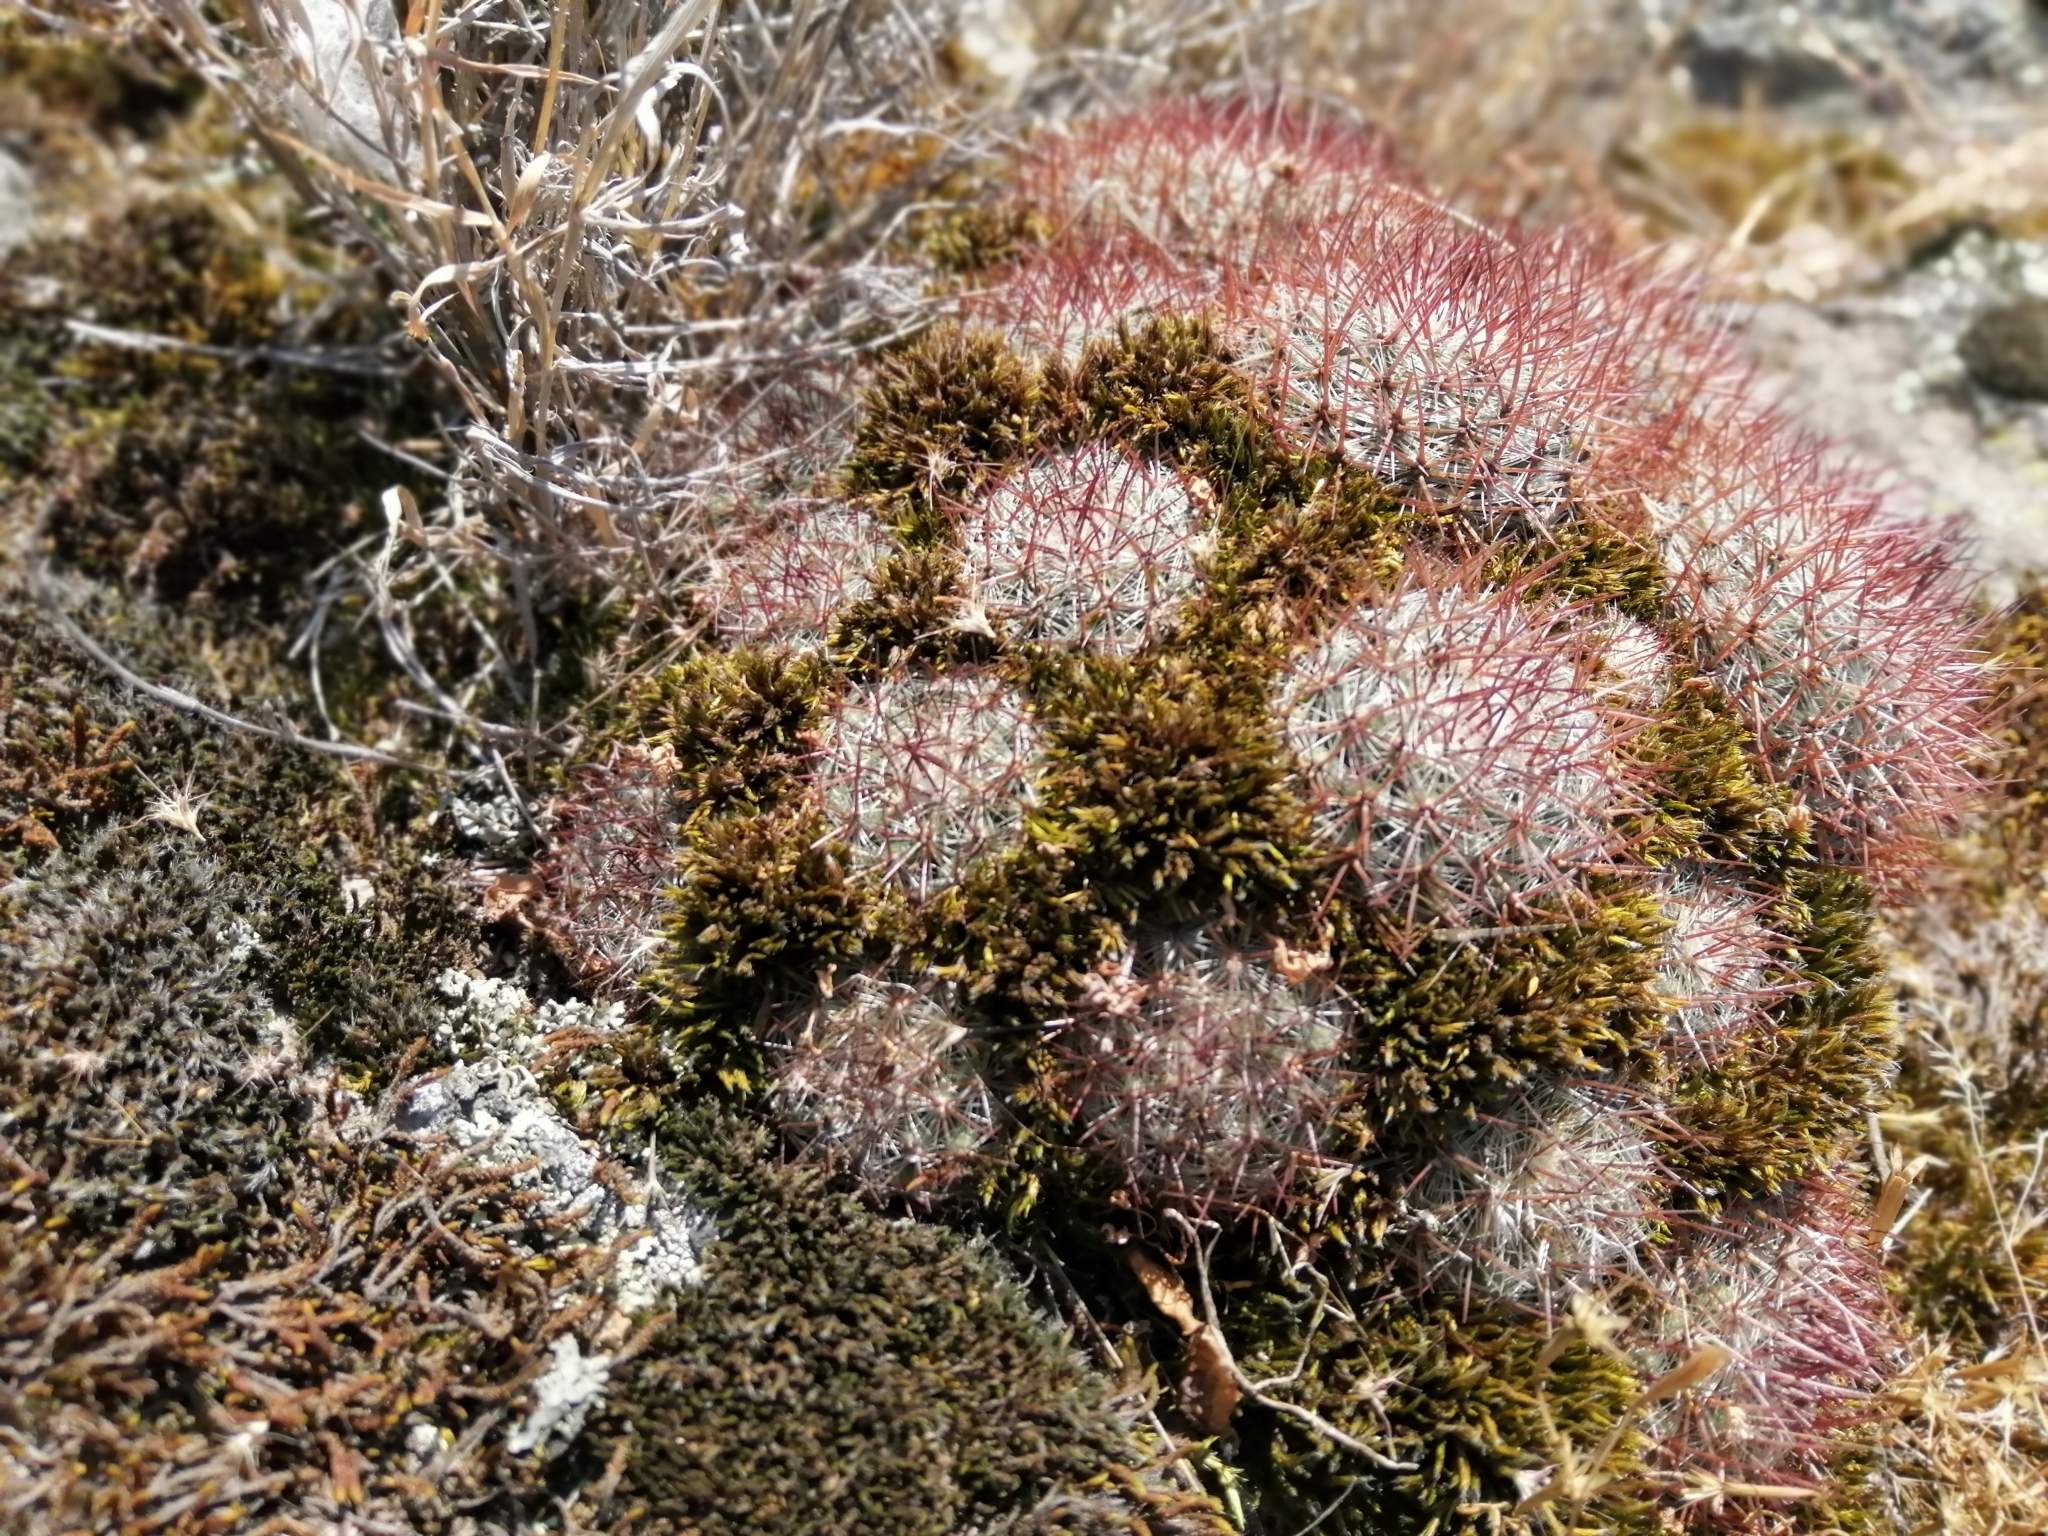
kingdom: Plantae
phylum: Tracheophyta
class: Magnoliopsida
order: Caryophyllales
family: Cactaceae
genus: Mammillaria
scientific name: Mammillaria rhodantha
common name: Rainbow pincushion
